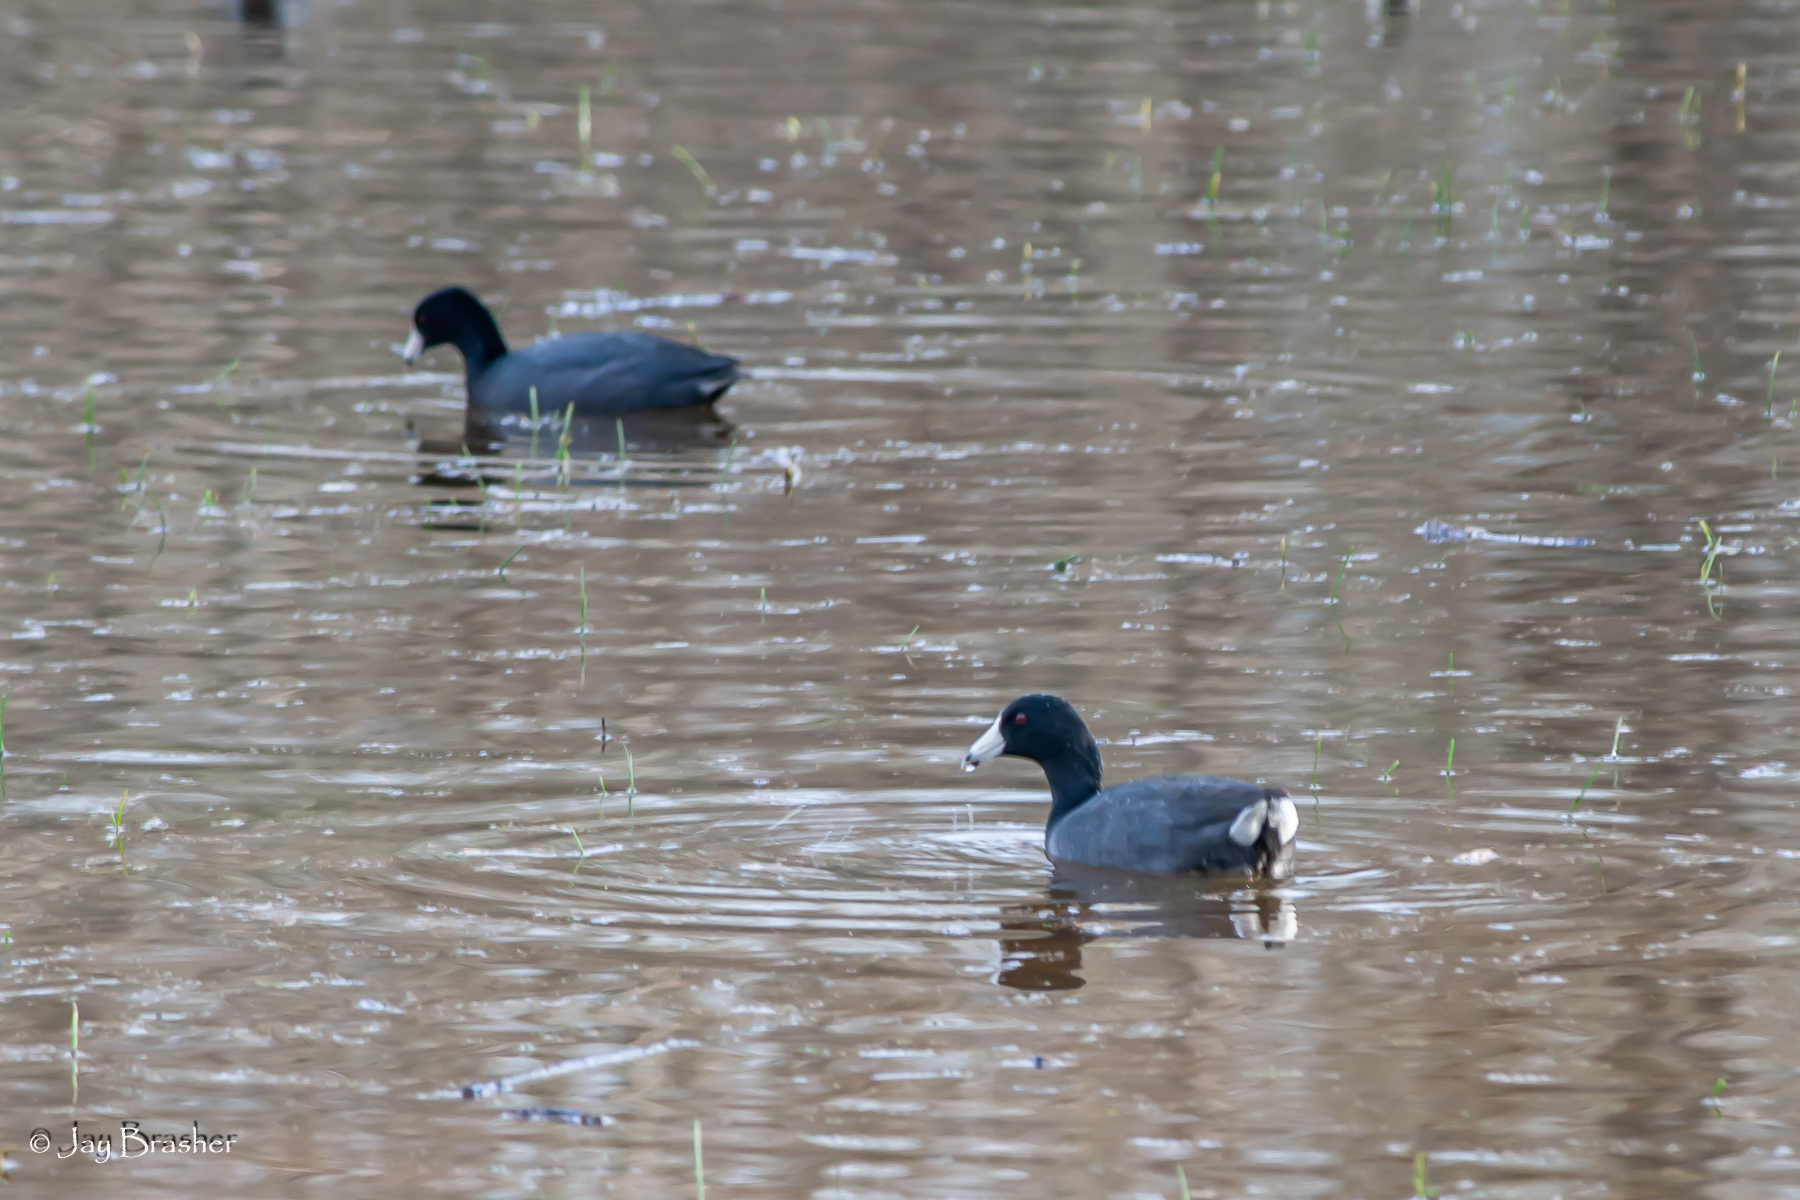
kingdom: Animalia
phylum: Chordata
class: Aves
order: Gruiformes
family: Rallidae
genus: Fulica
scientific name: Fulica americana
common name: American coot
